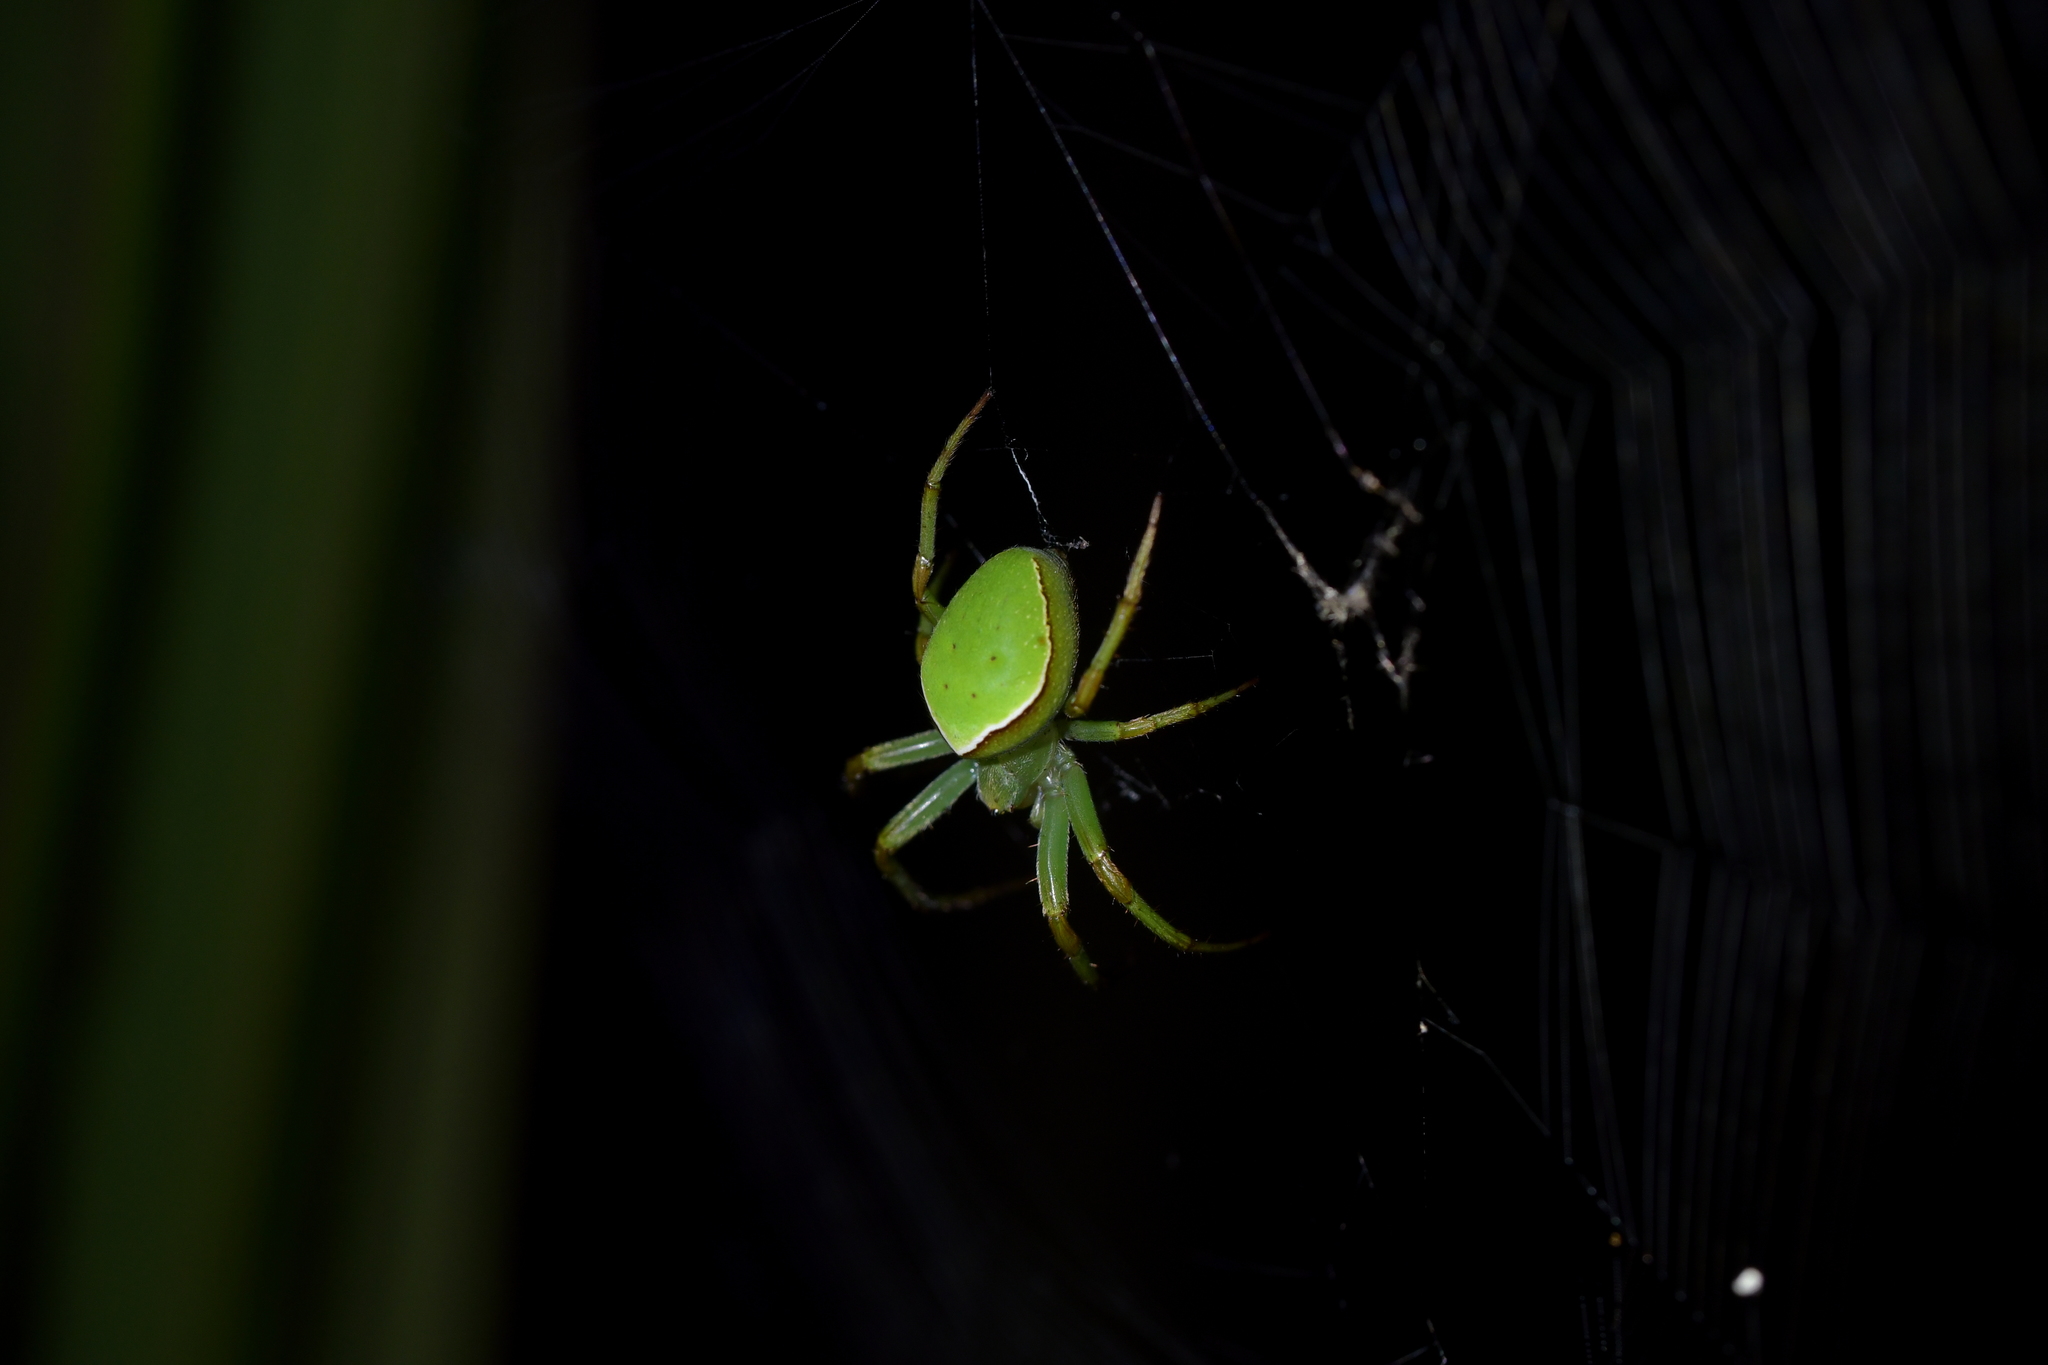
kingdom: Animalia
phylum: Arthropoda
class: Arachnida
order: Araneae
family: Araneidae
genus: Colaranea
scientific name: Colaranea viriditas
